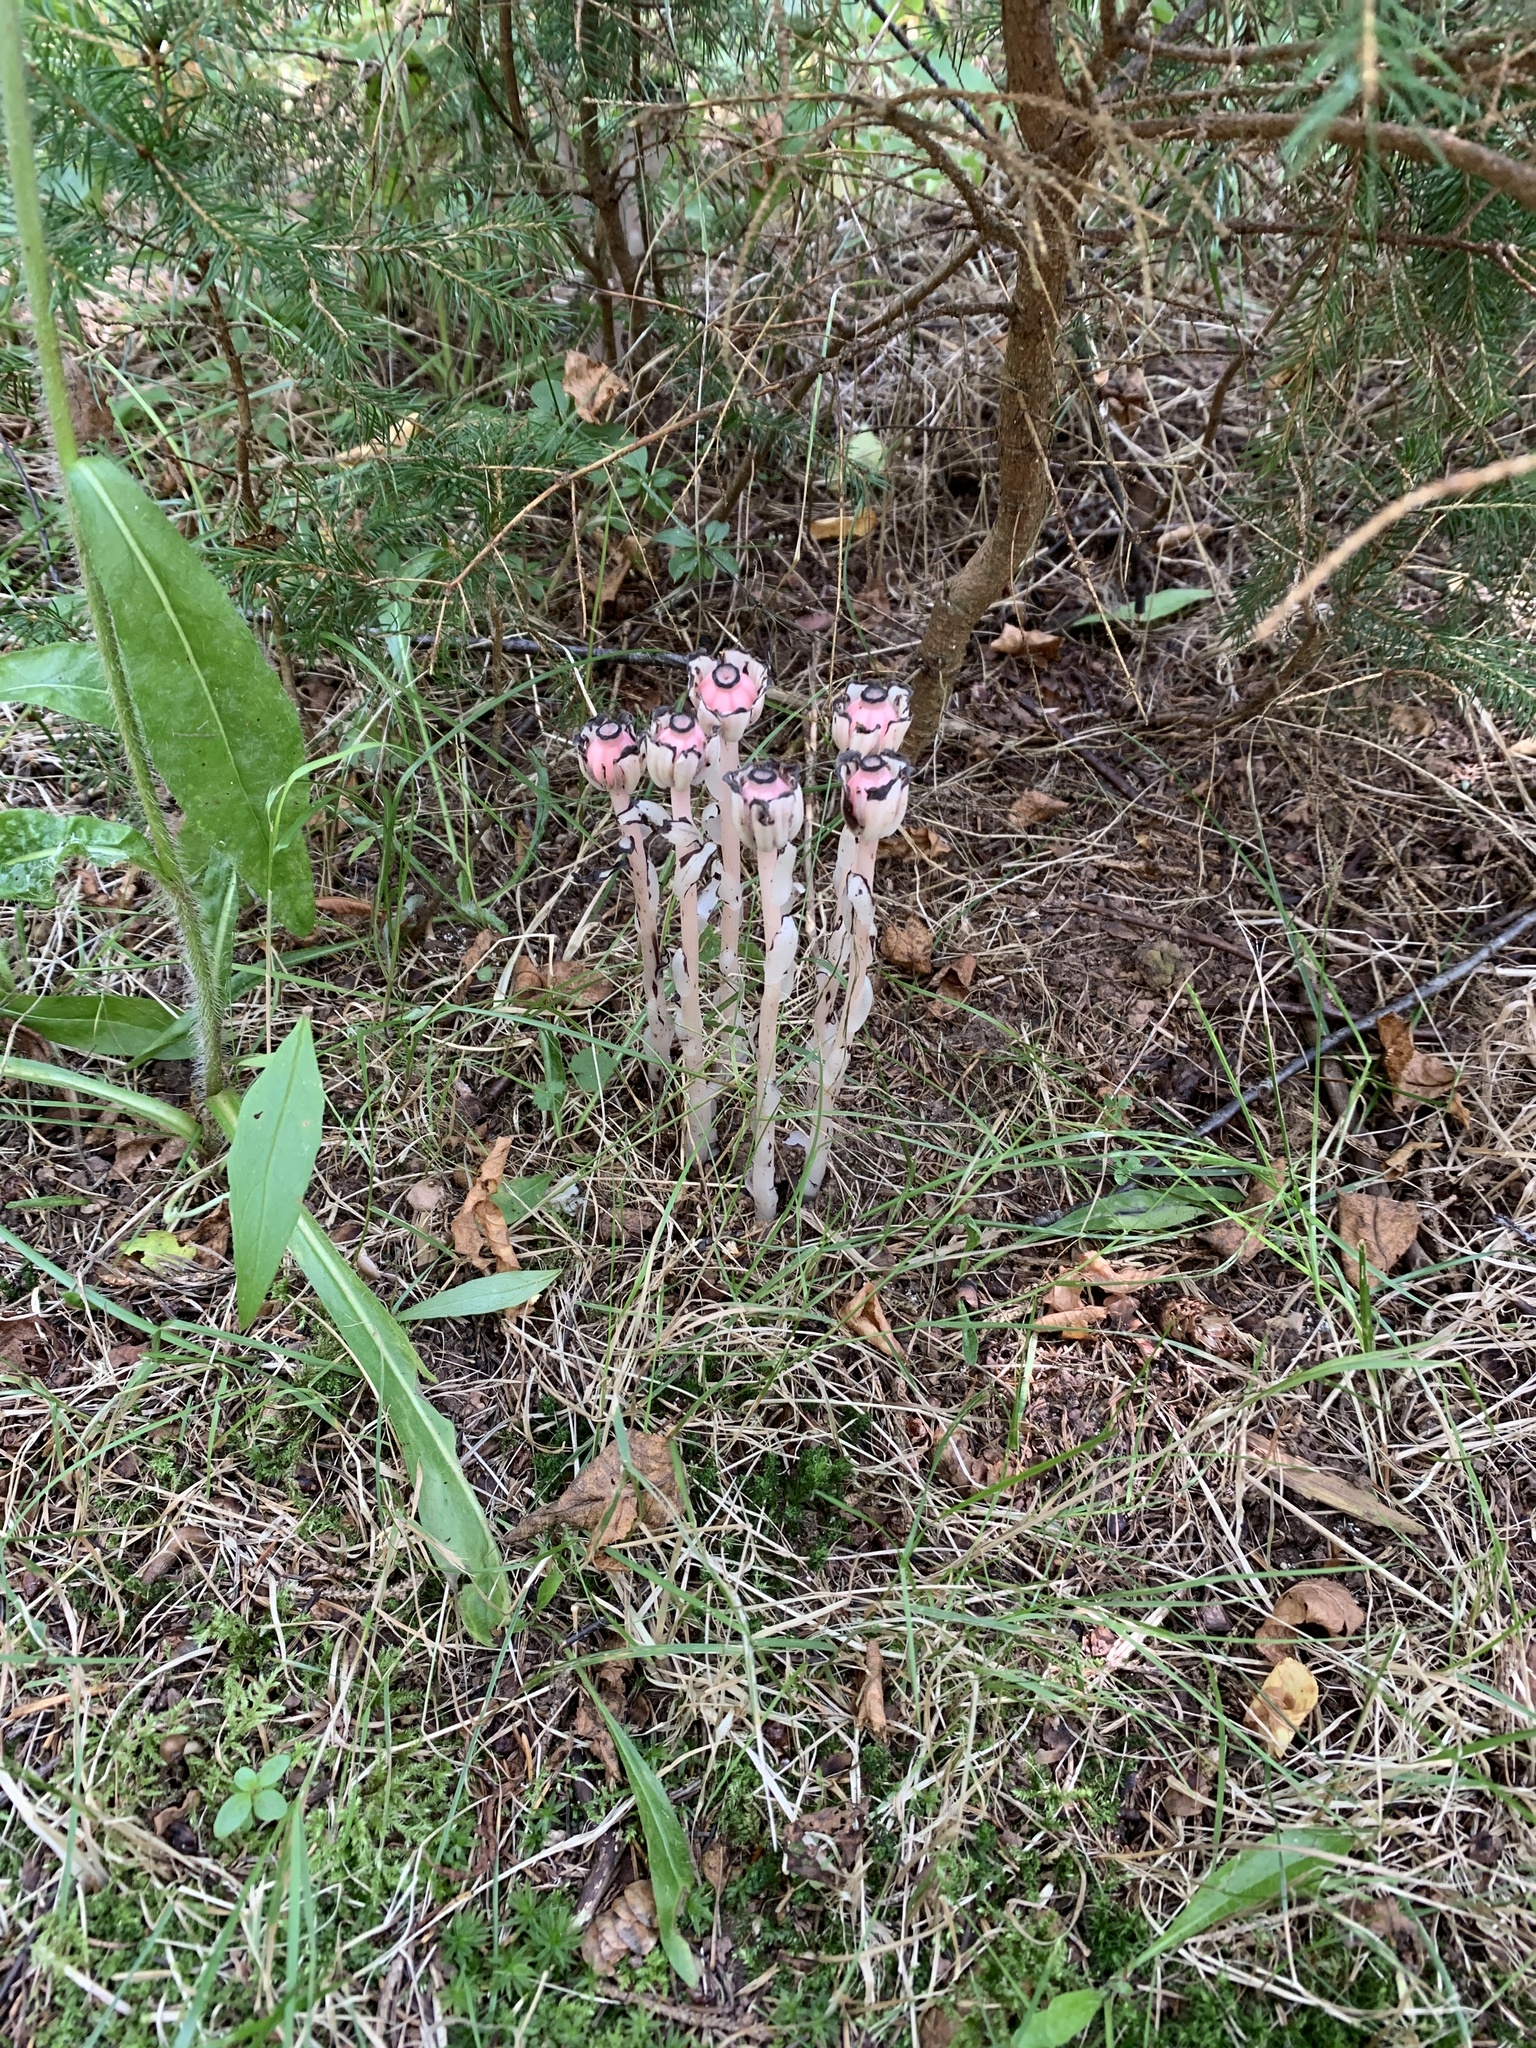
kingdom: Plantae
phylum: Tracheophyta
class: Magnoliopsida
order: Ericales
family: Ericaceae
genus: Monotropa
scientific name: Monotropa uniflora
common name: Convulsion root
